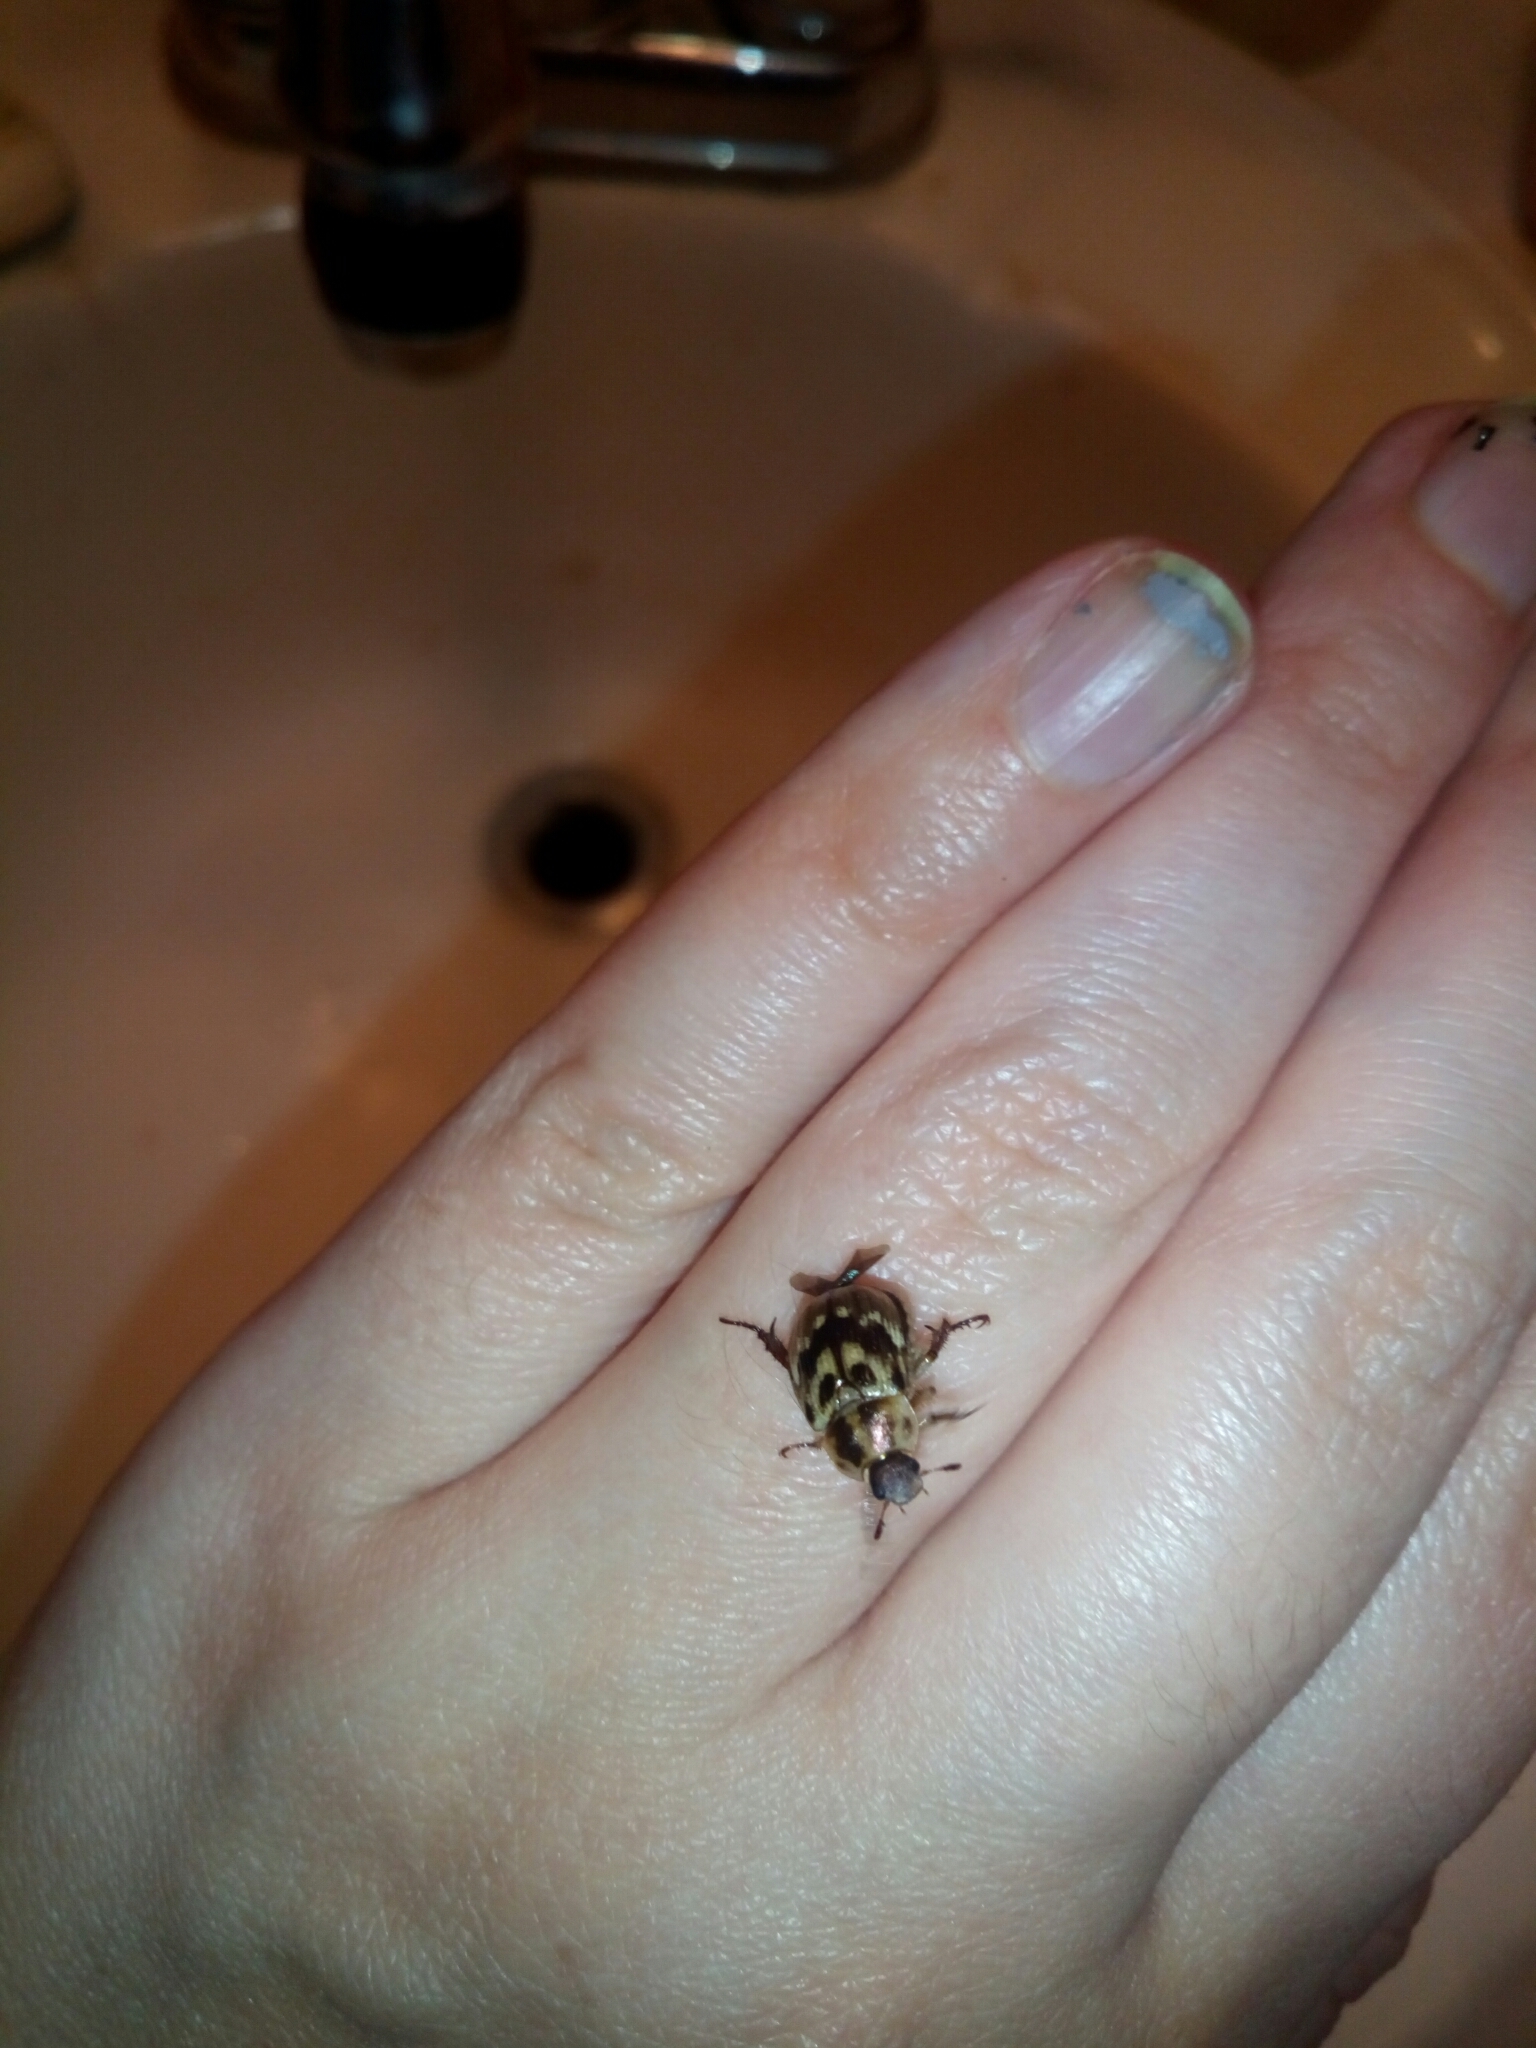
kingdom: Animalia
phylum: Arthropoda
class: Insecta
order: Coleoptera
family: Scarabaeidae
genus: Exomala
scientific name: Exomala orientalis
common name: Oriental beetle
